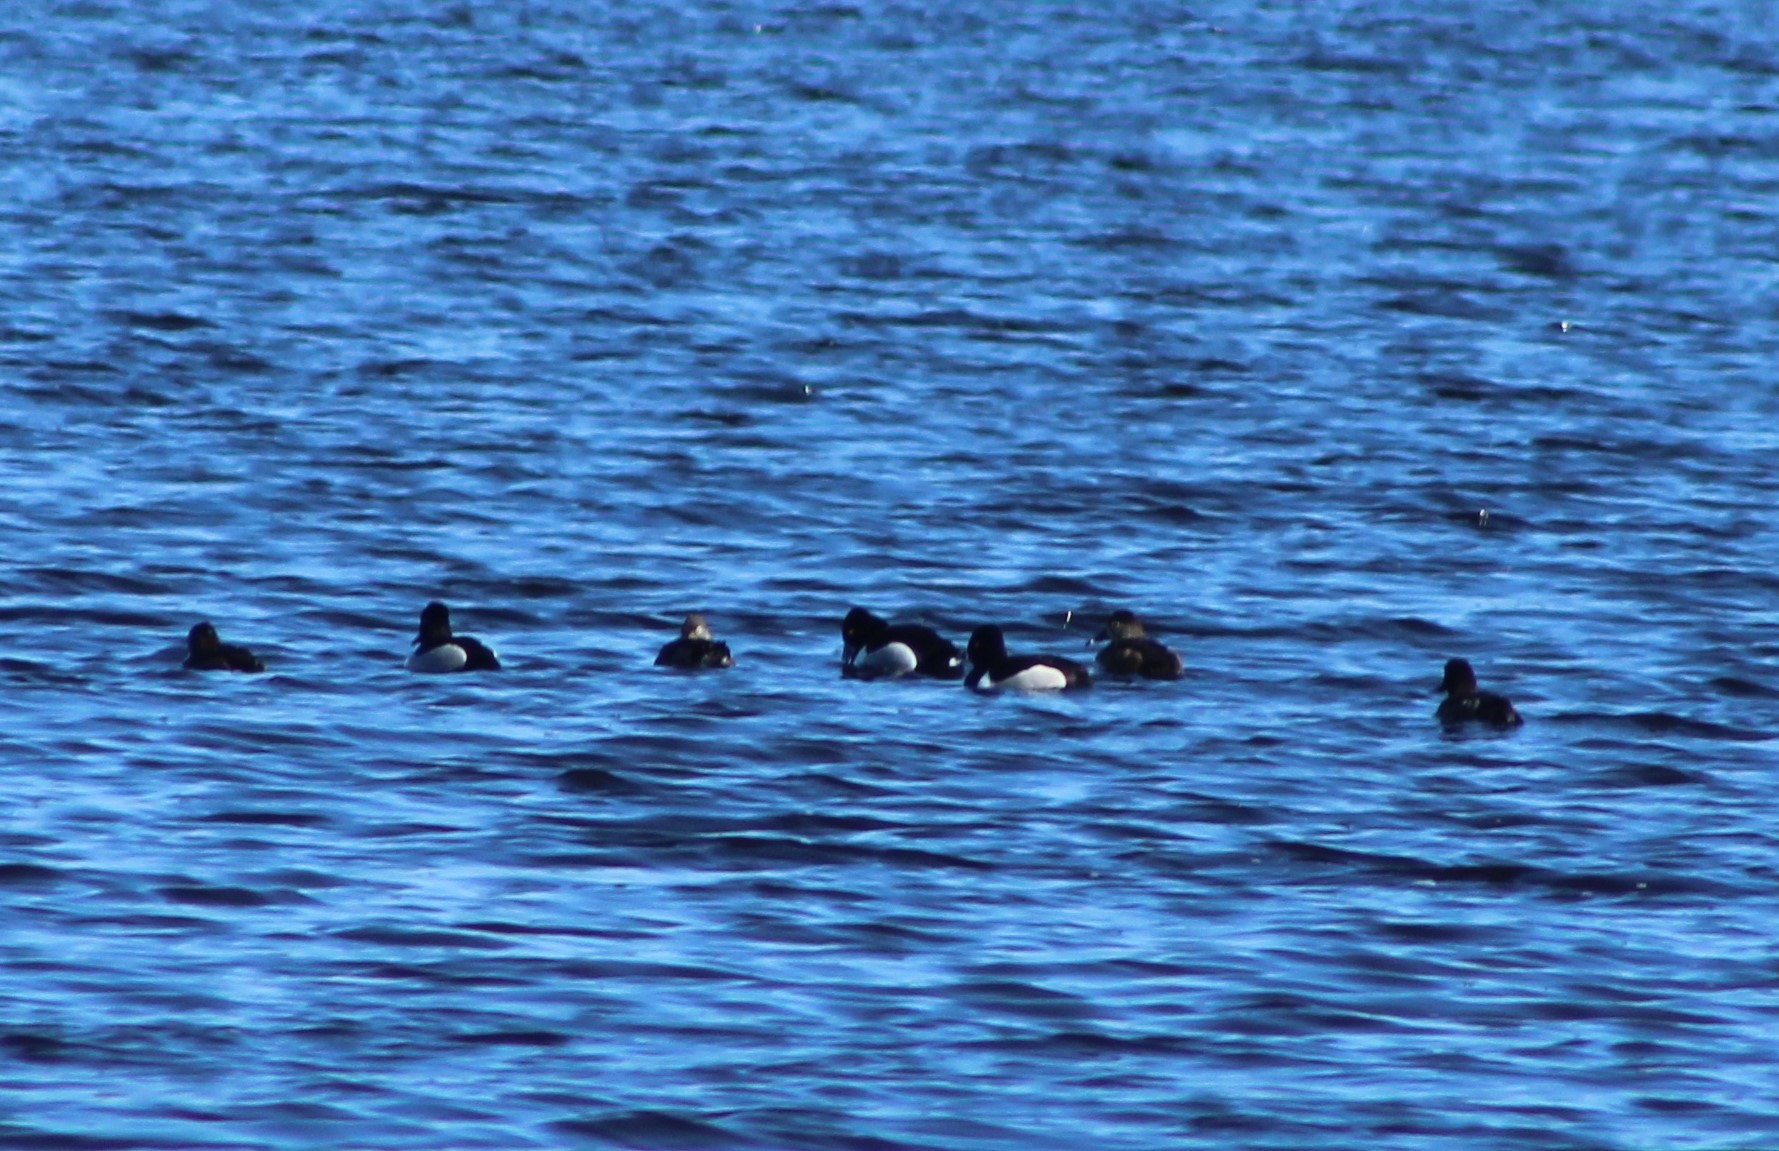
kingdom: Animalia
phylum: Chordata
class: Aves
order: Anseriformes
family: Anatidae
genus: Aythya
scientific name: Aythya collaris
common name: Ring-necked duck
